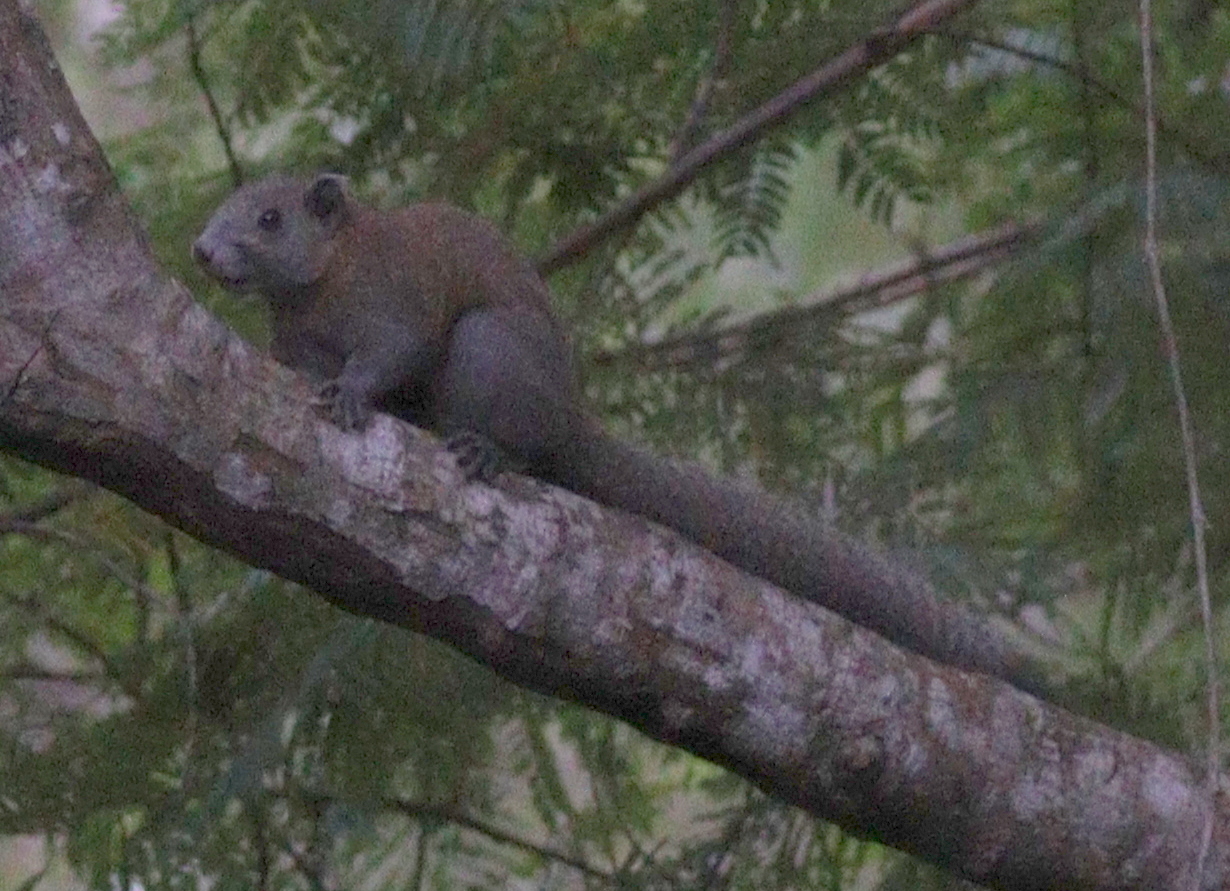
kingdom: Animalia
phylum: Chordata
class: Mammalia
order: Rodentia
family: Sciuridae
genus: Callosciurus
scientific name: Callosciurus caniceps
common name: Gray-bellied squirrel
